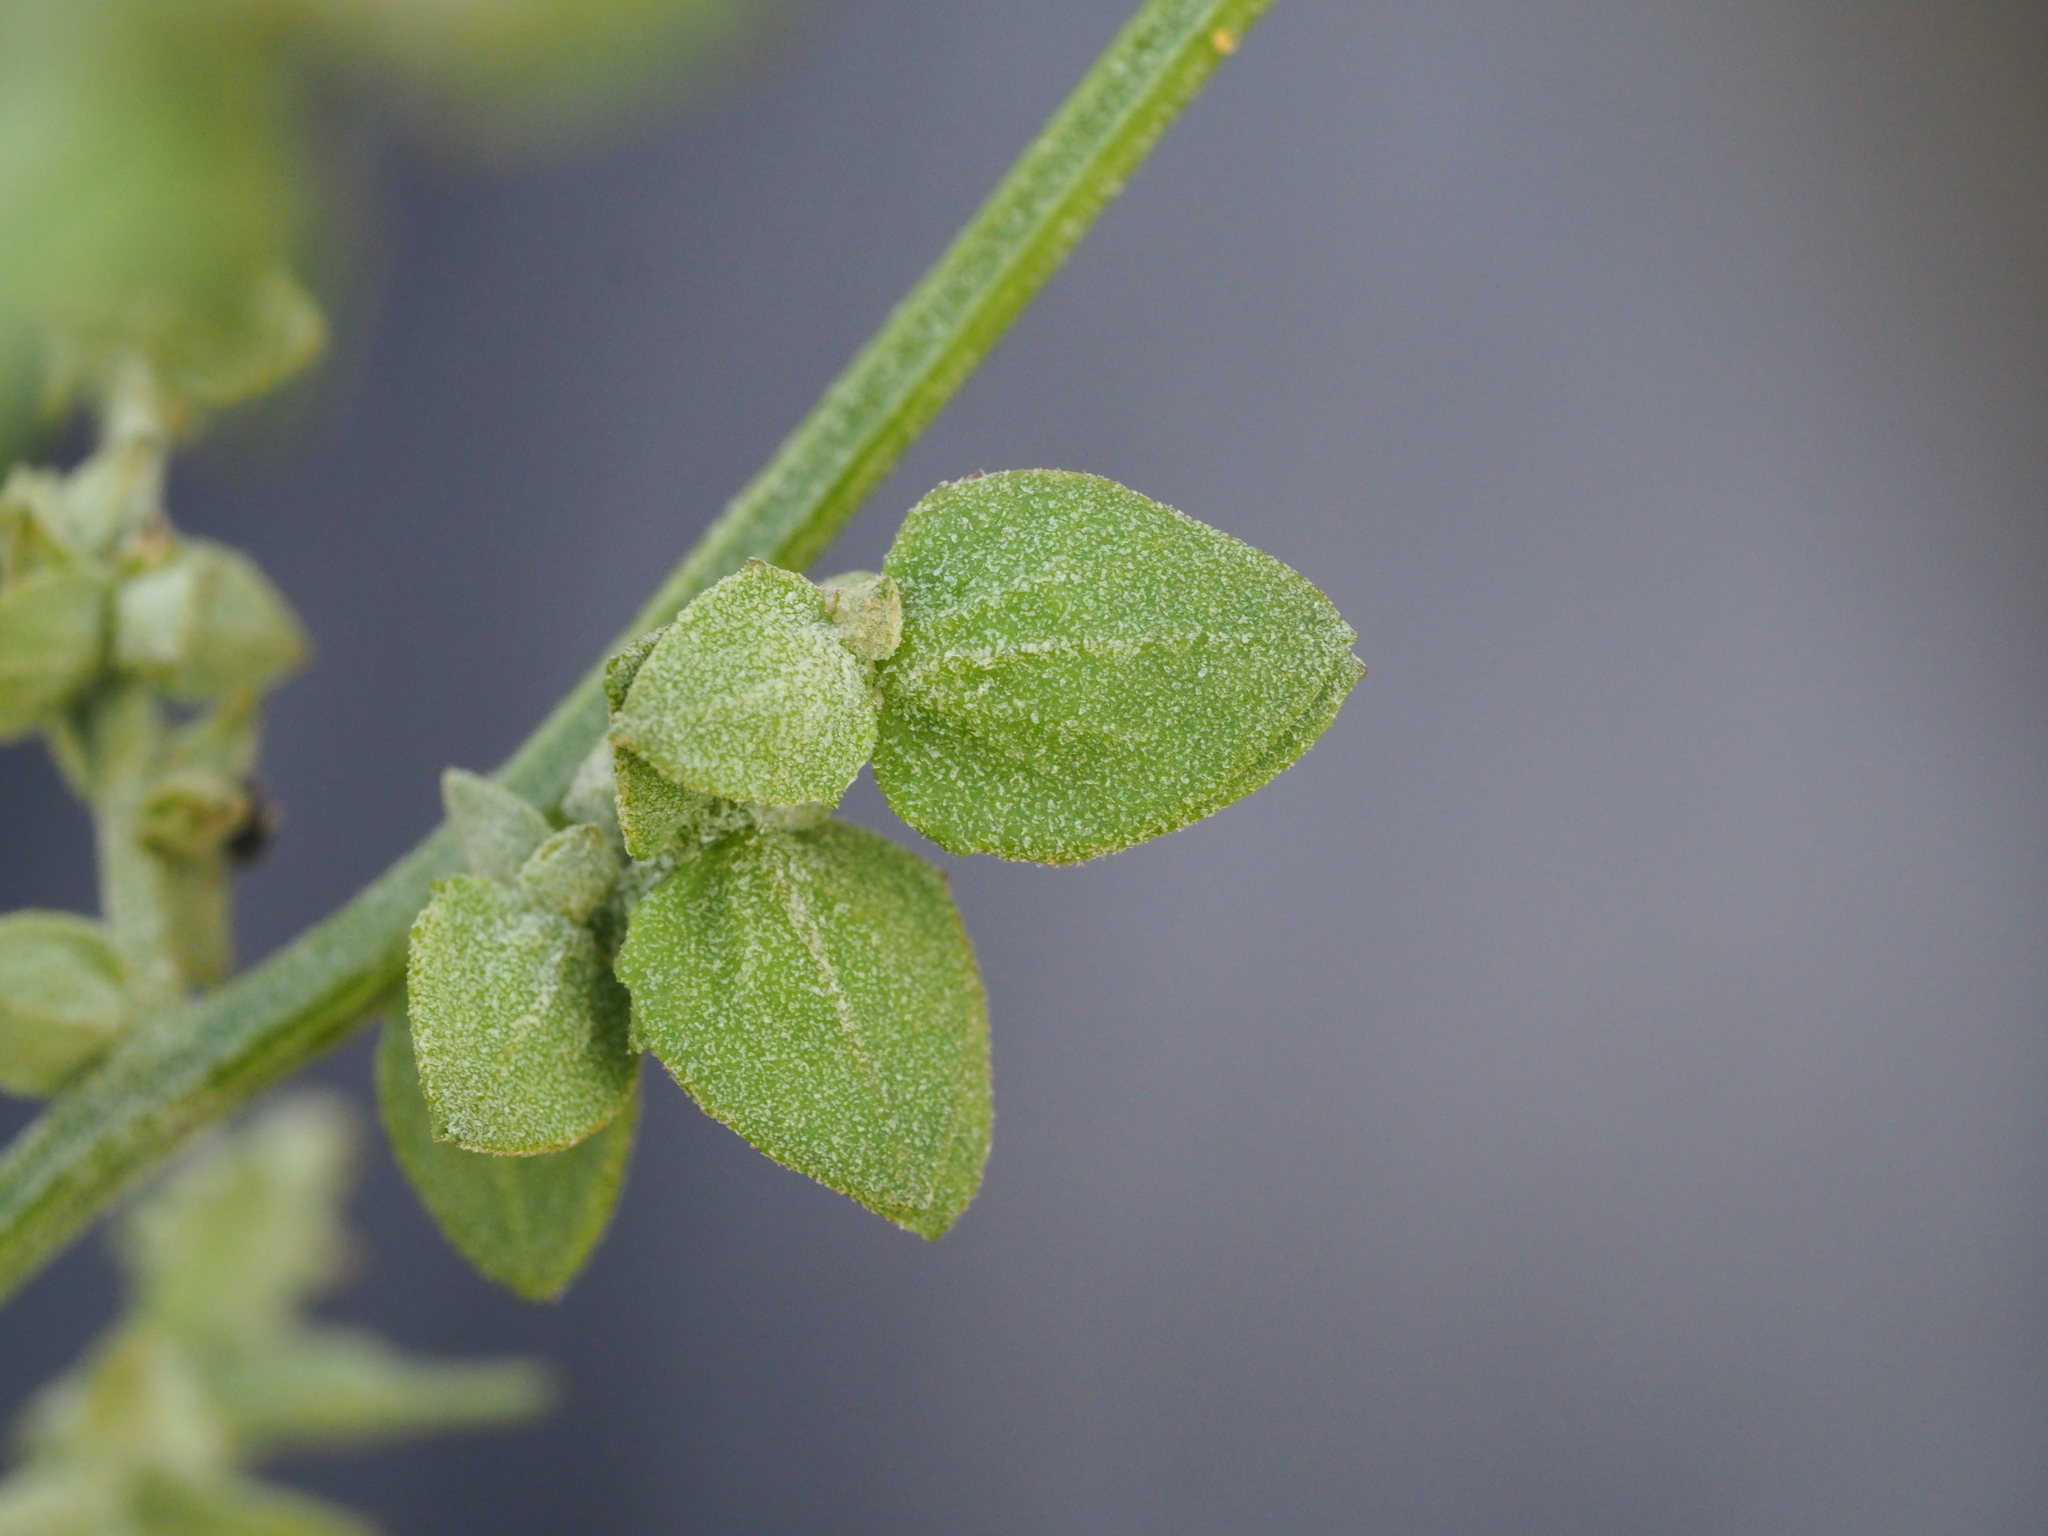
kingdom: Plantae
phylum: Tracheophyta
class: Magnoliopsida
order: Caryophyllales
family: Amaranthaceae
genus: Atriplex
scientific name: Atriplex oblongifolia
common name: Oblongleaf orache
